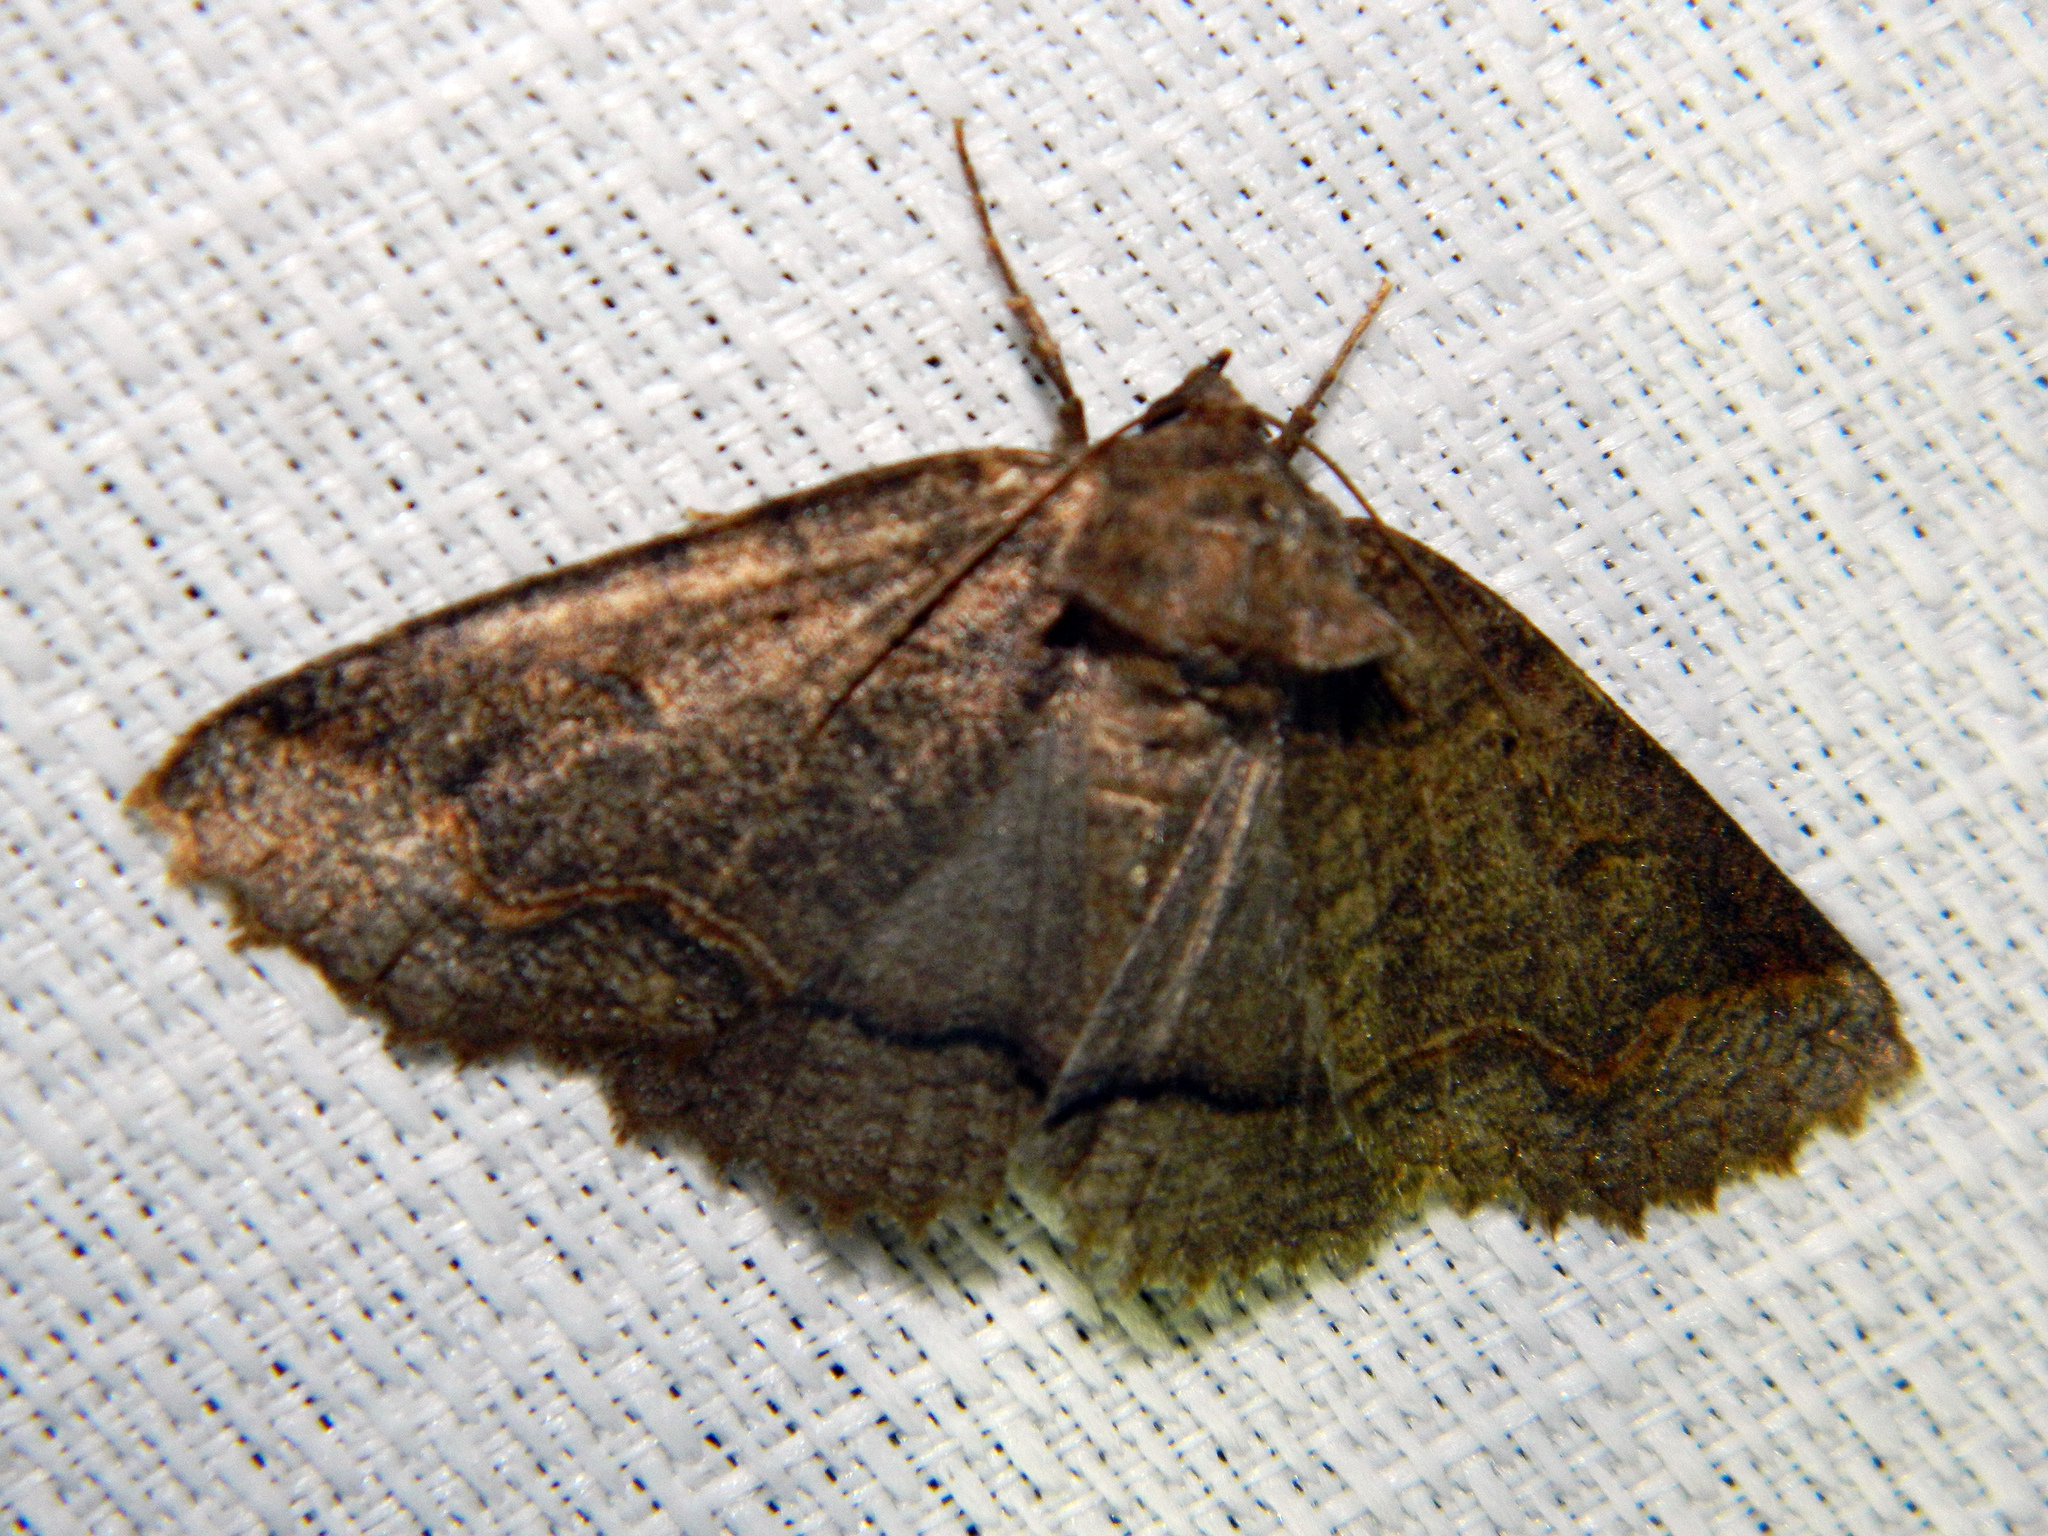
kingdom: Animalia
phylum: Arthropoda
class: Insecta
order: Lepidoptera
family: Erebidae
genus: Zale
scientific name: Zale unilineata
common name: One-lined zale moth
